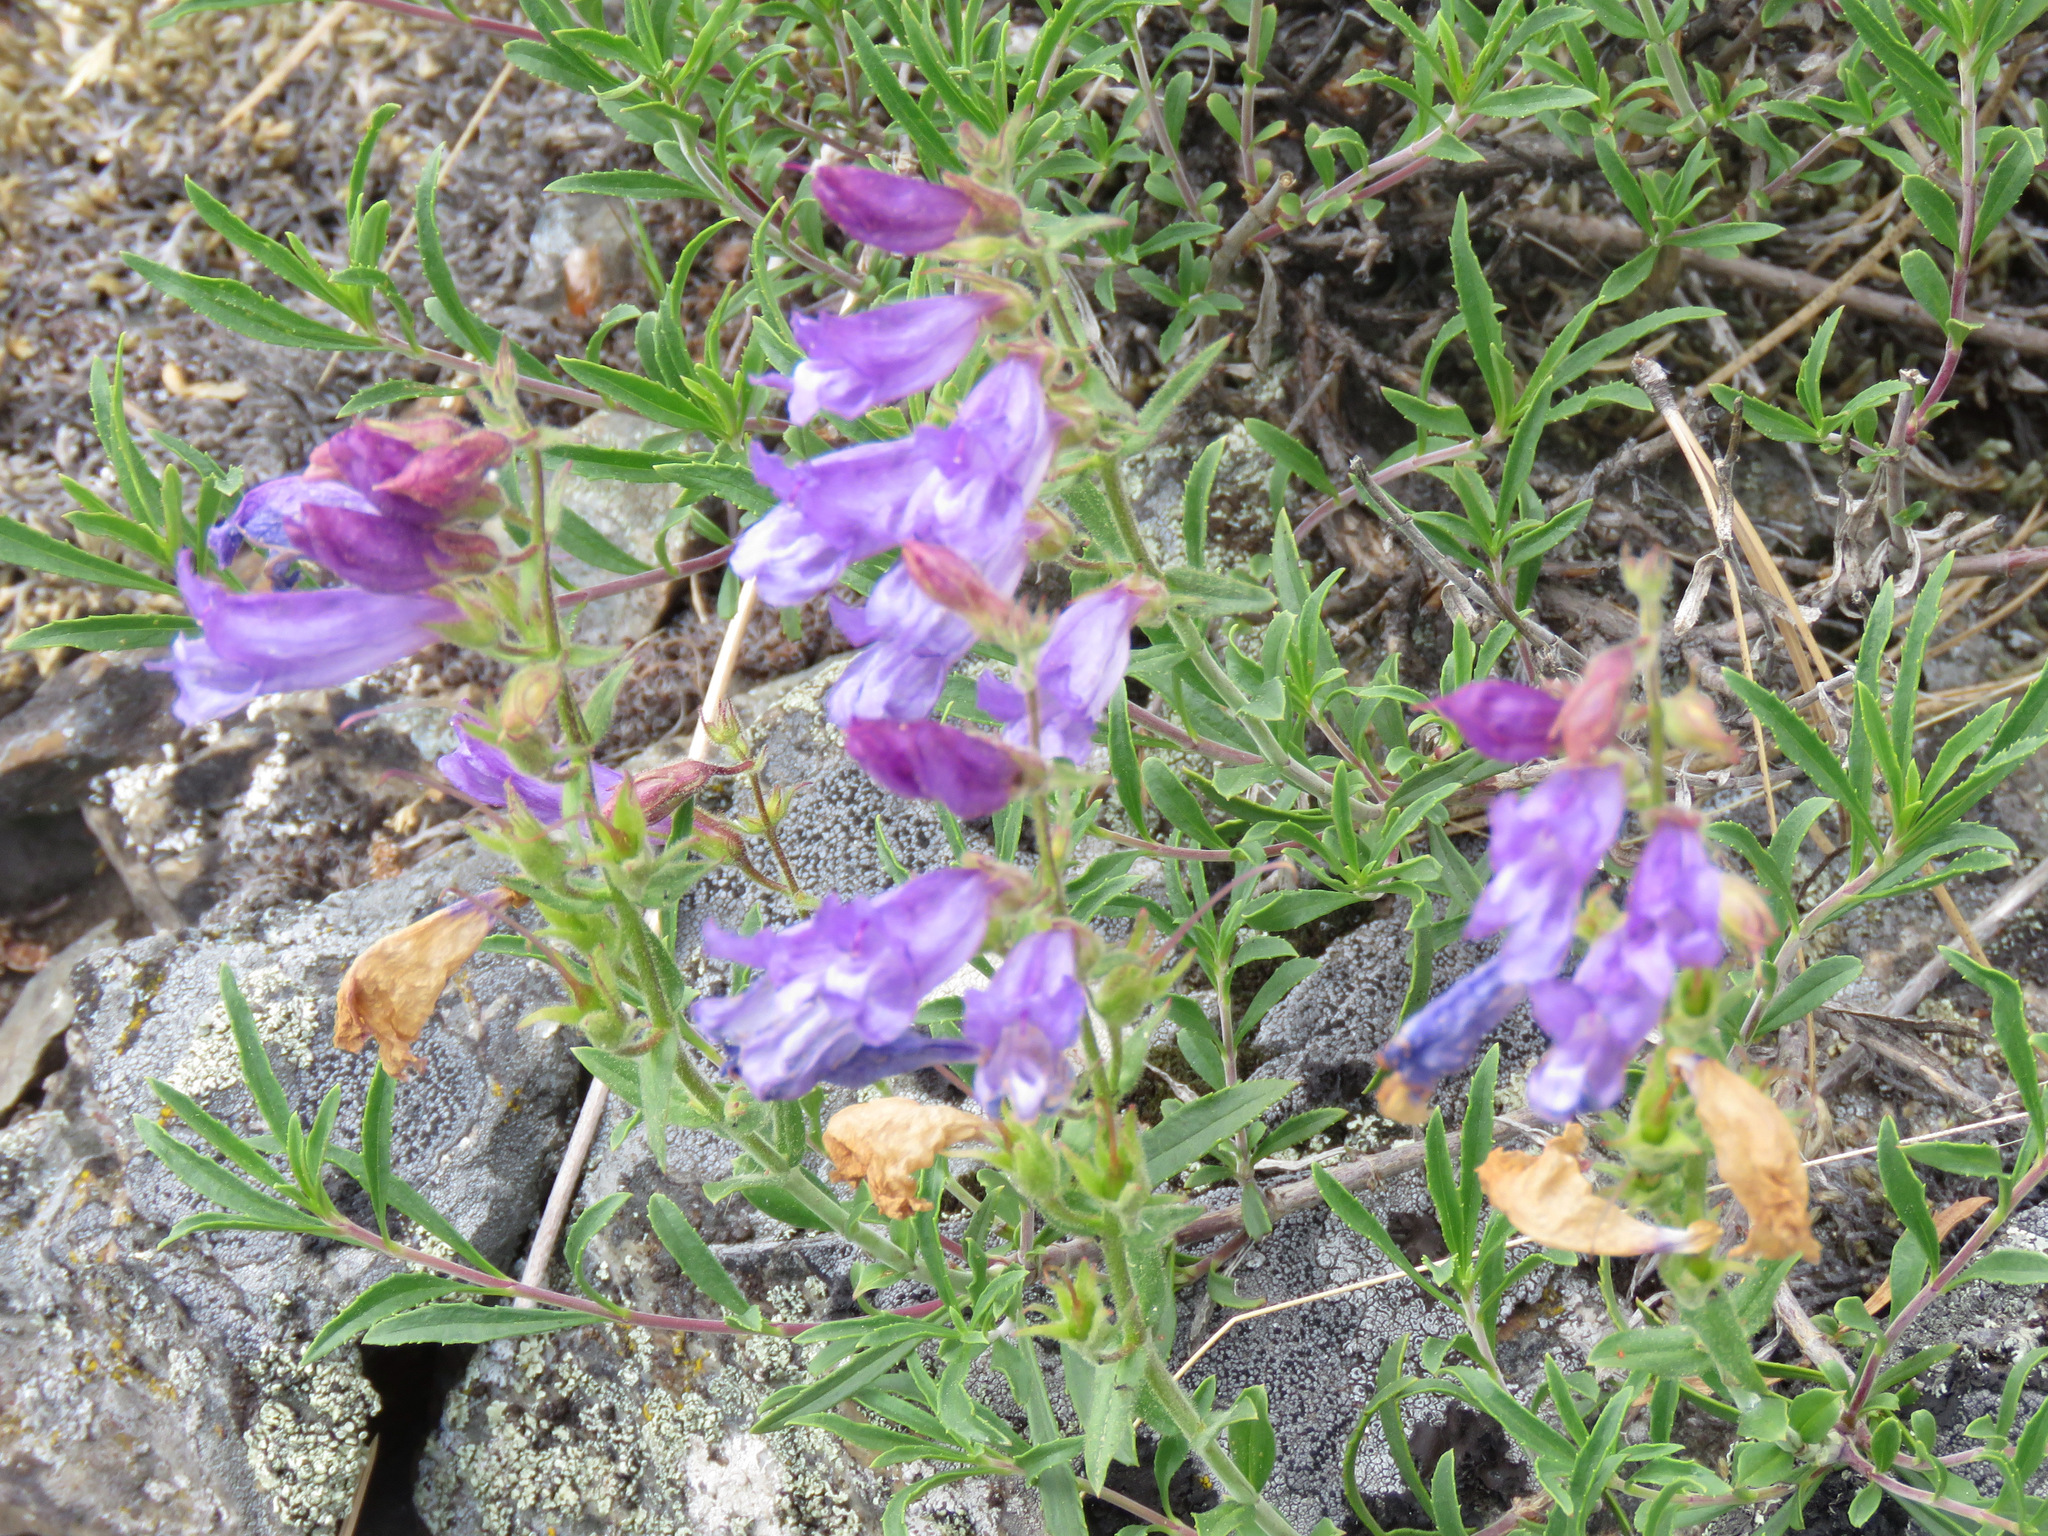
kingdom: Plantae
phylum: Tracheophyta
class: Magnoliopsida
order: Lamiales
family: Plantaginaceae
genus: Penstemon
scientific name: Penstemon fruticosus
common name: Bush penstemon
